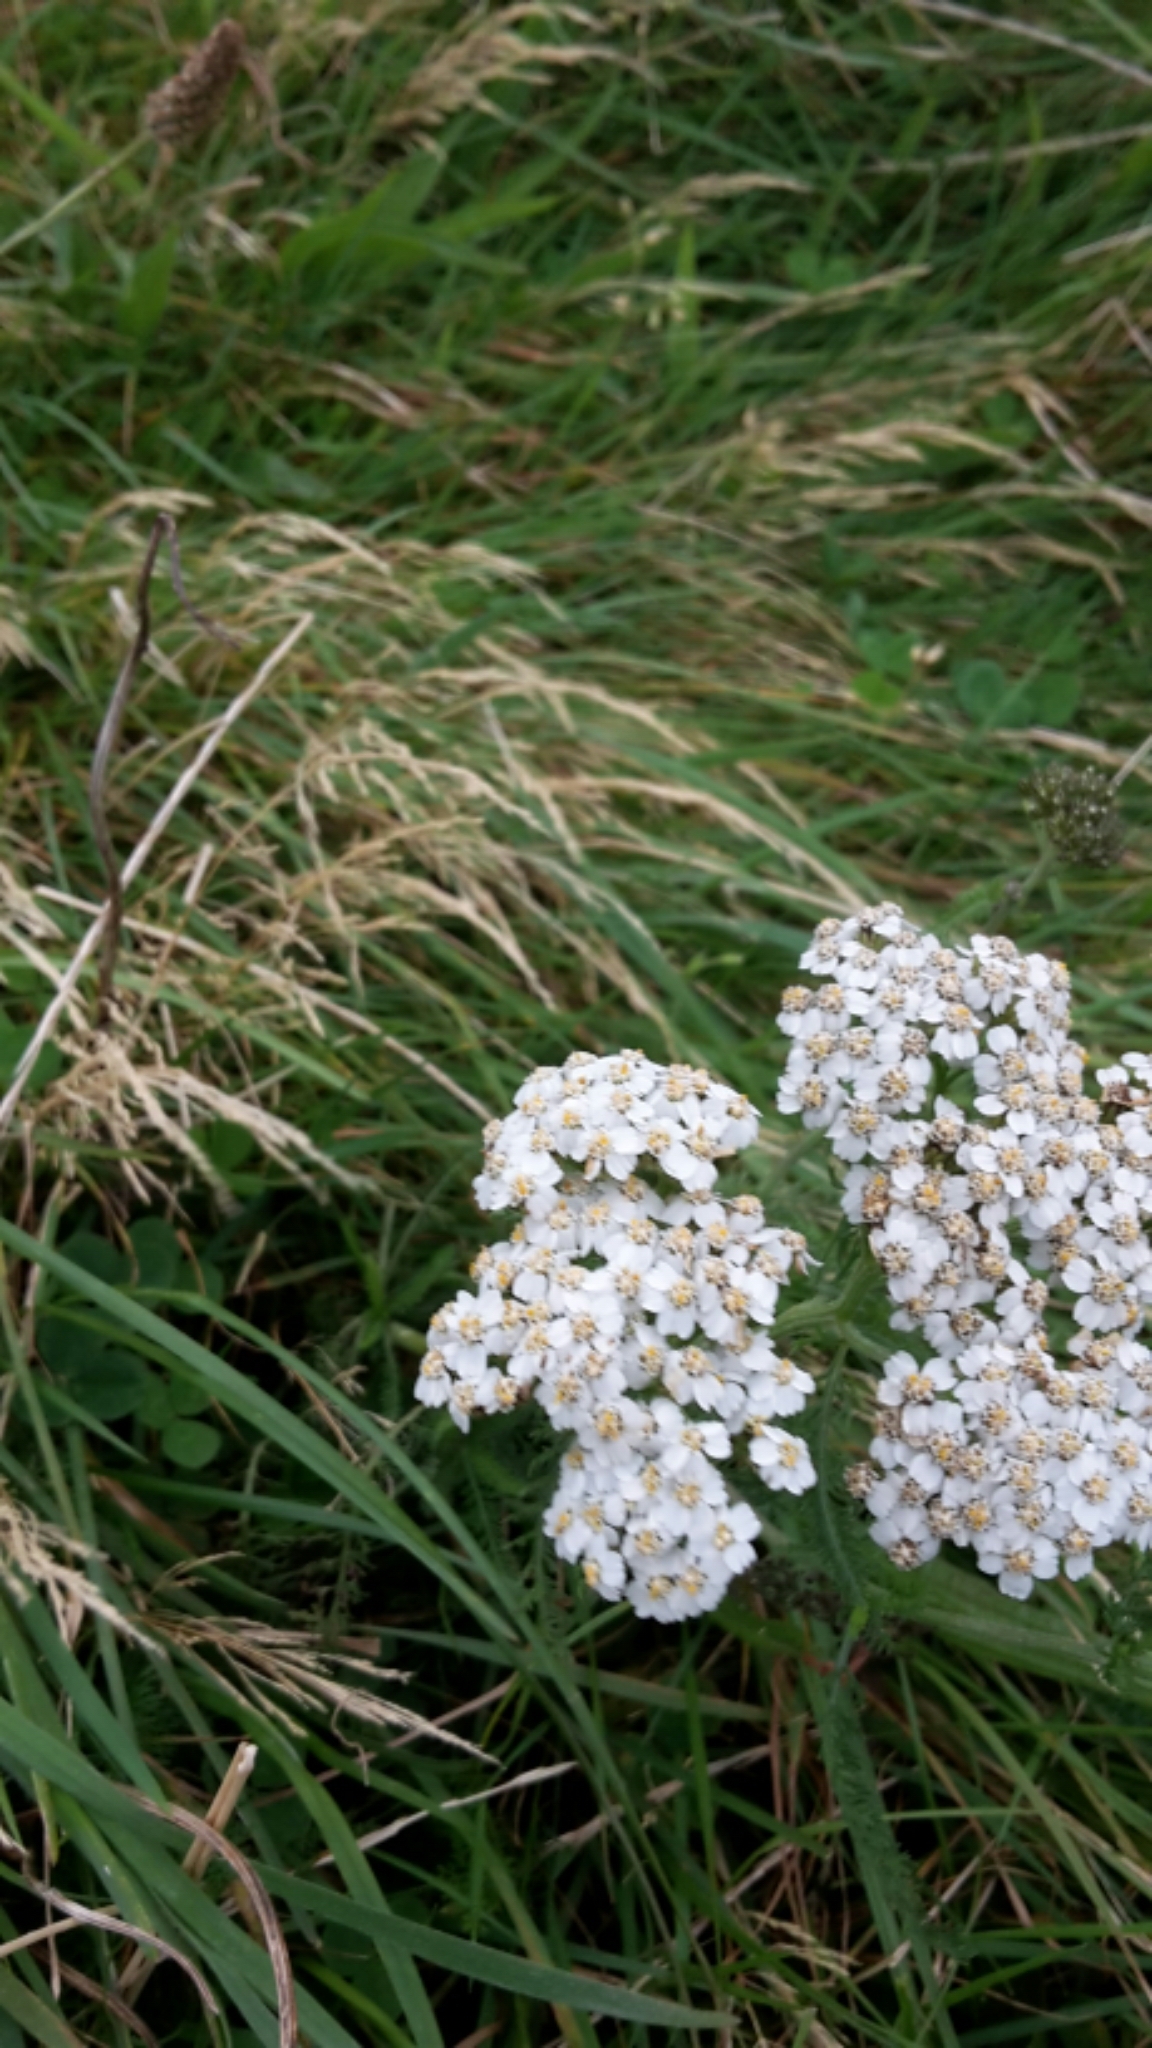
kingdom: Plantae
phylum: Tracheophyta
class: Magnoliopsida
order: Asterales
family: Asteraceae
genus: Achillea
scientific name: Achillea millefolium
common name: Yarrow
